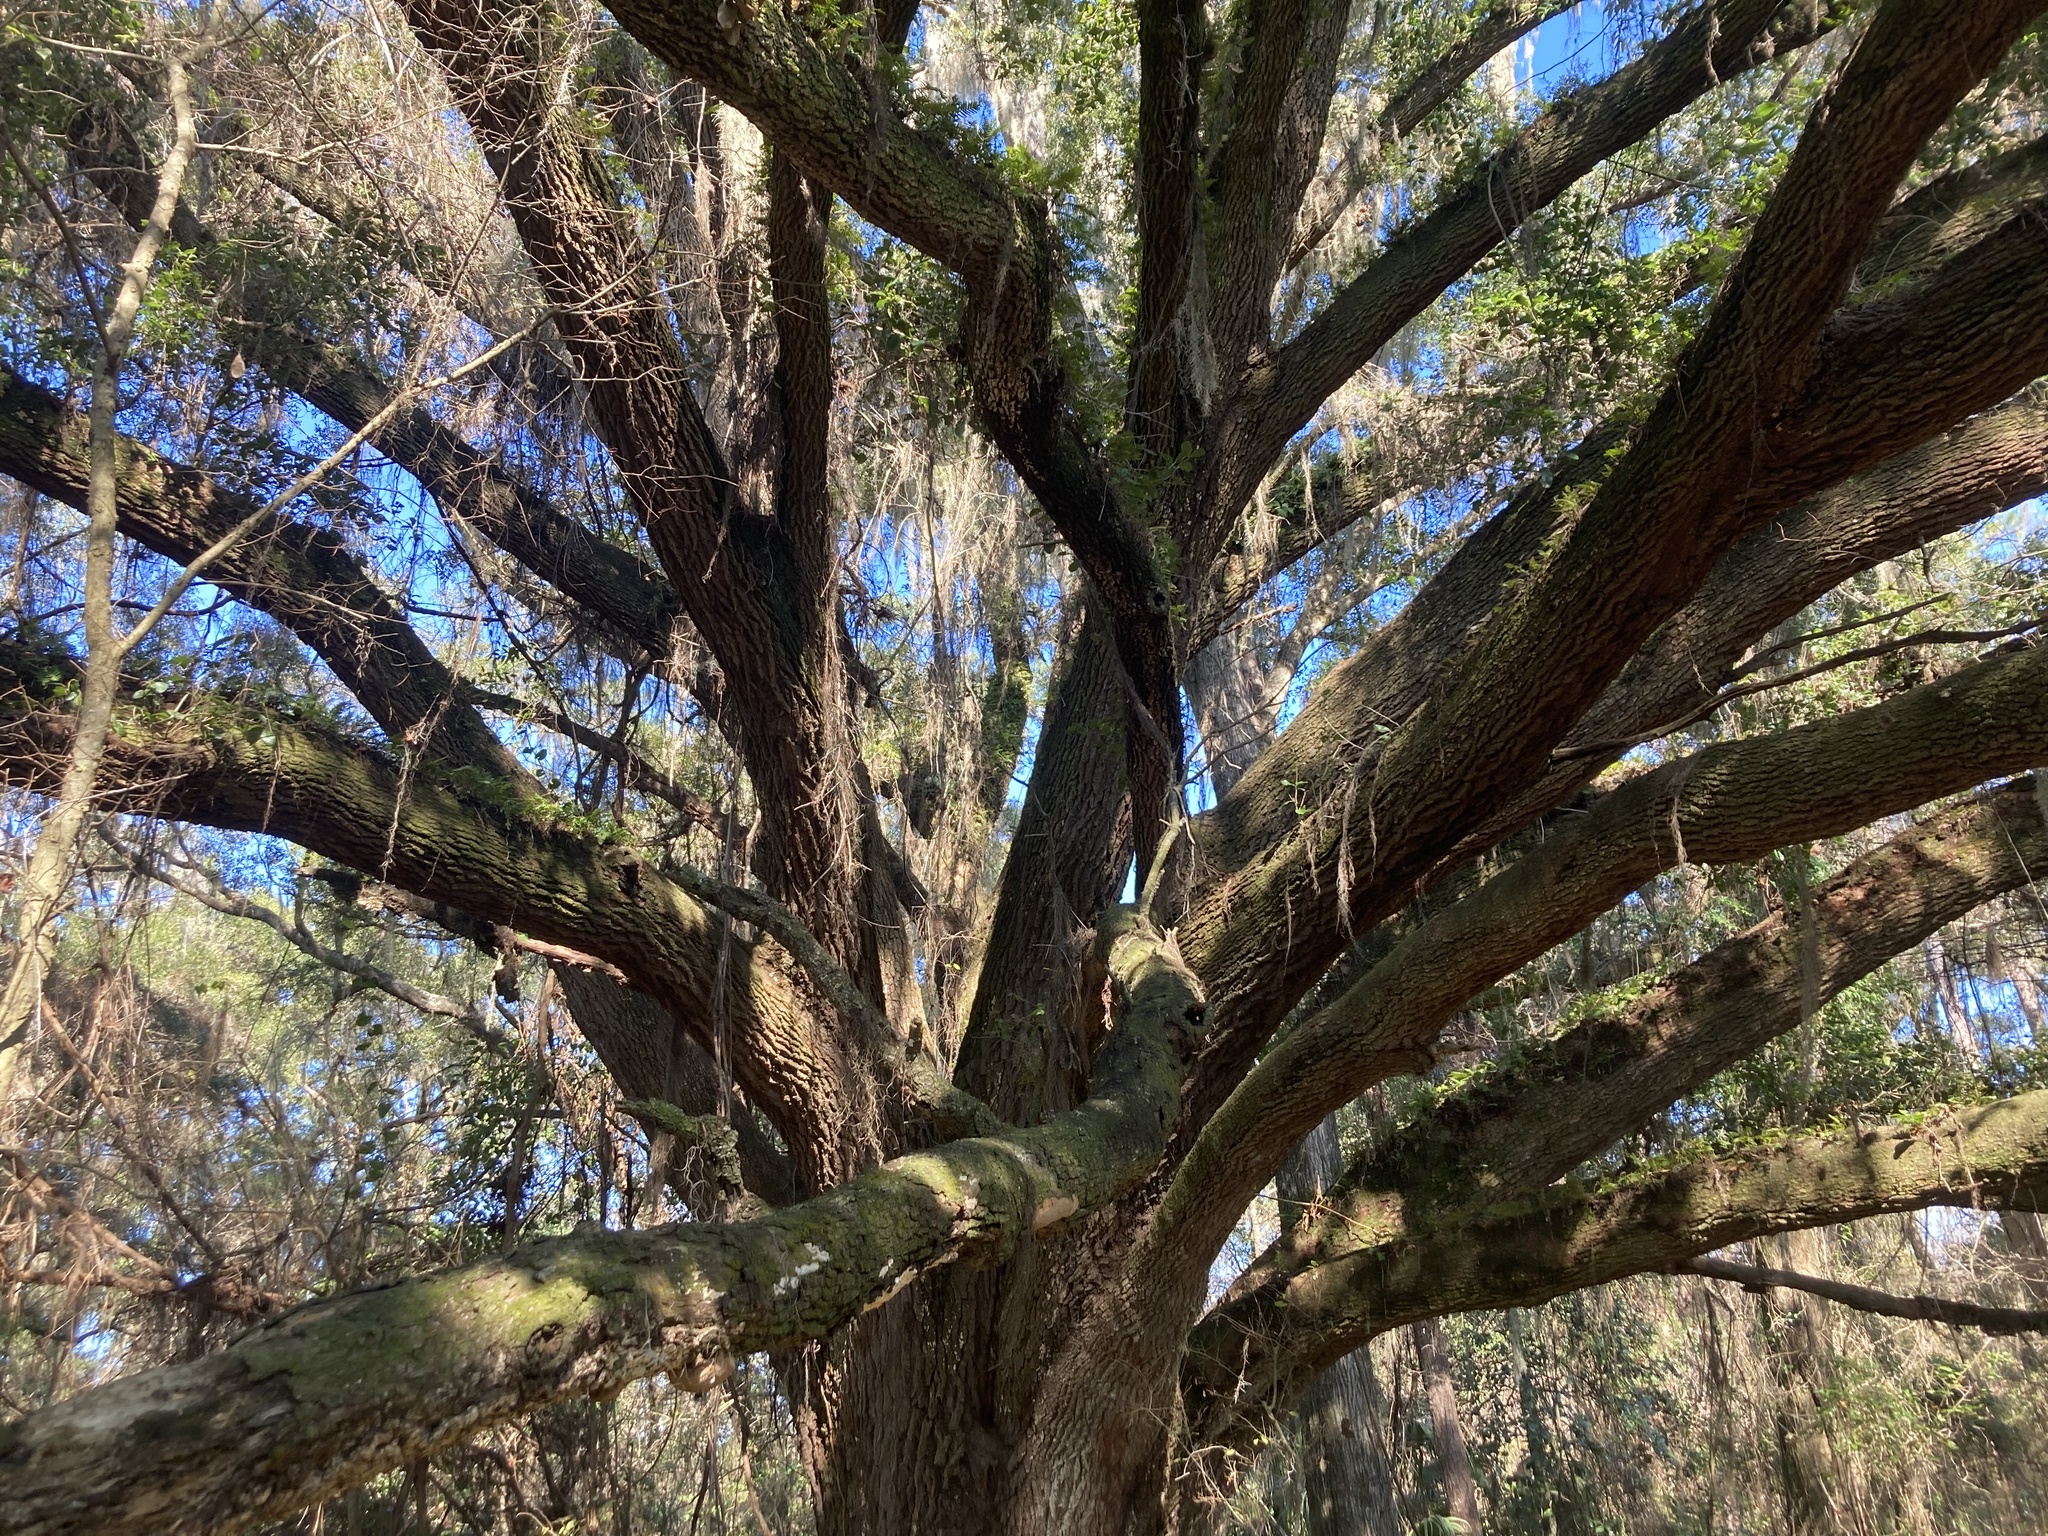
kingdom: Plantae
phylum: Tracheophyta
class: Magnoliopsida
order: Fagales
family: Fagaceae
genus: Quercus
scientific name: Quercus virginiana
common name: Southern live oak
